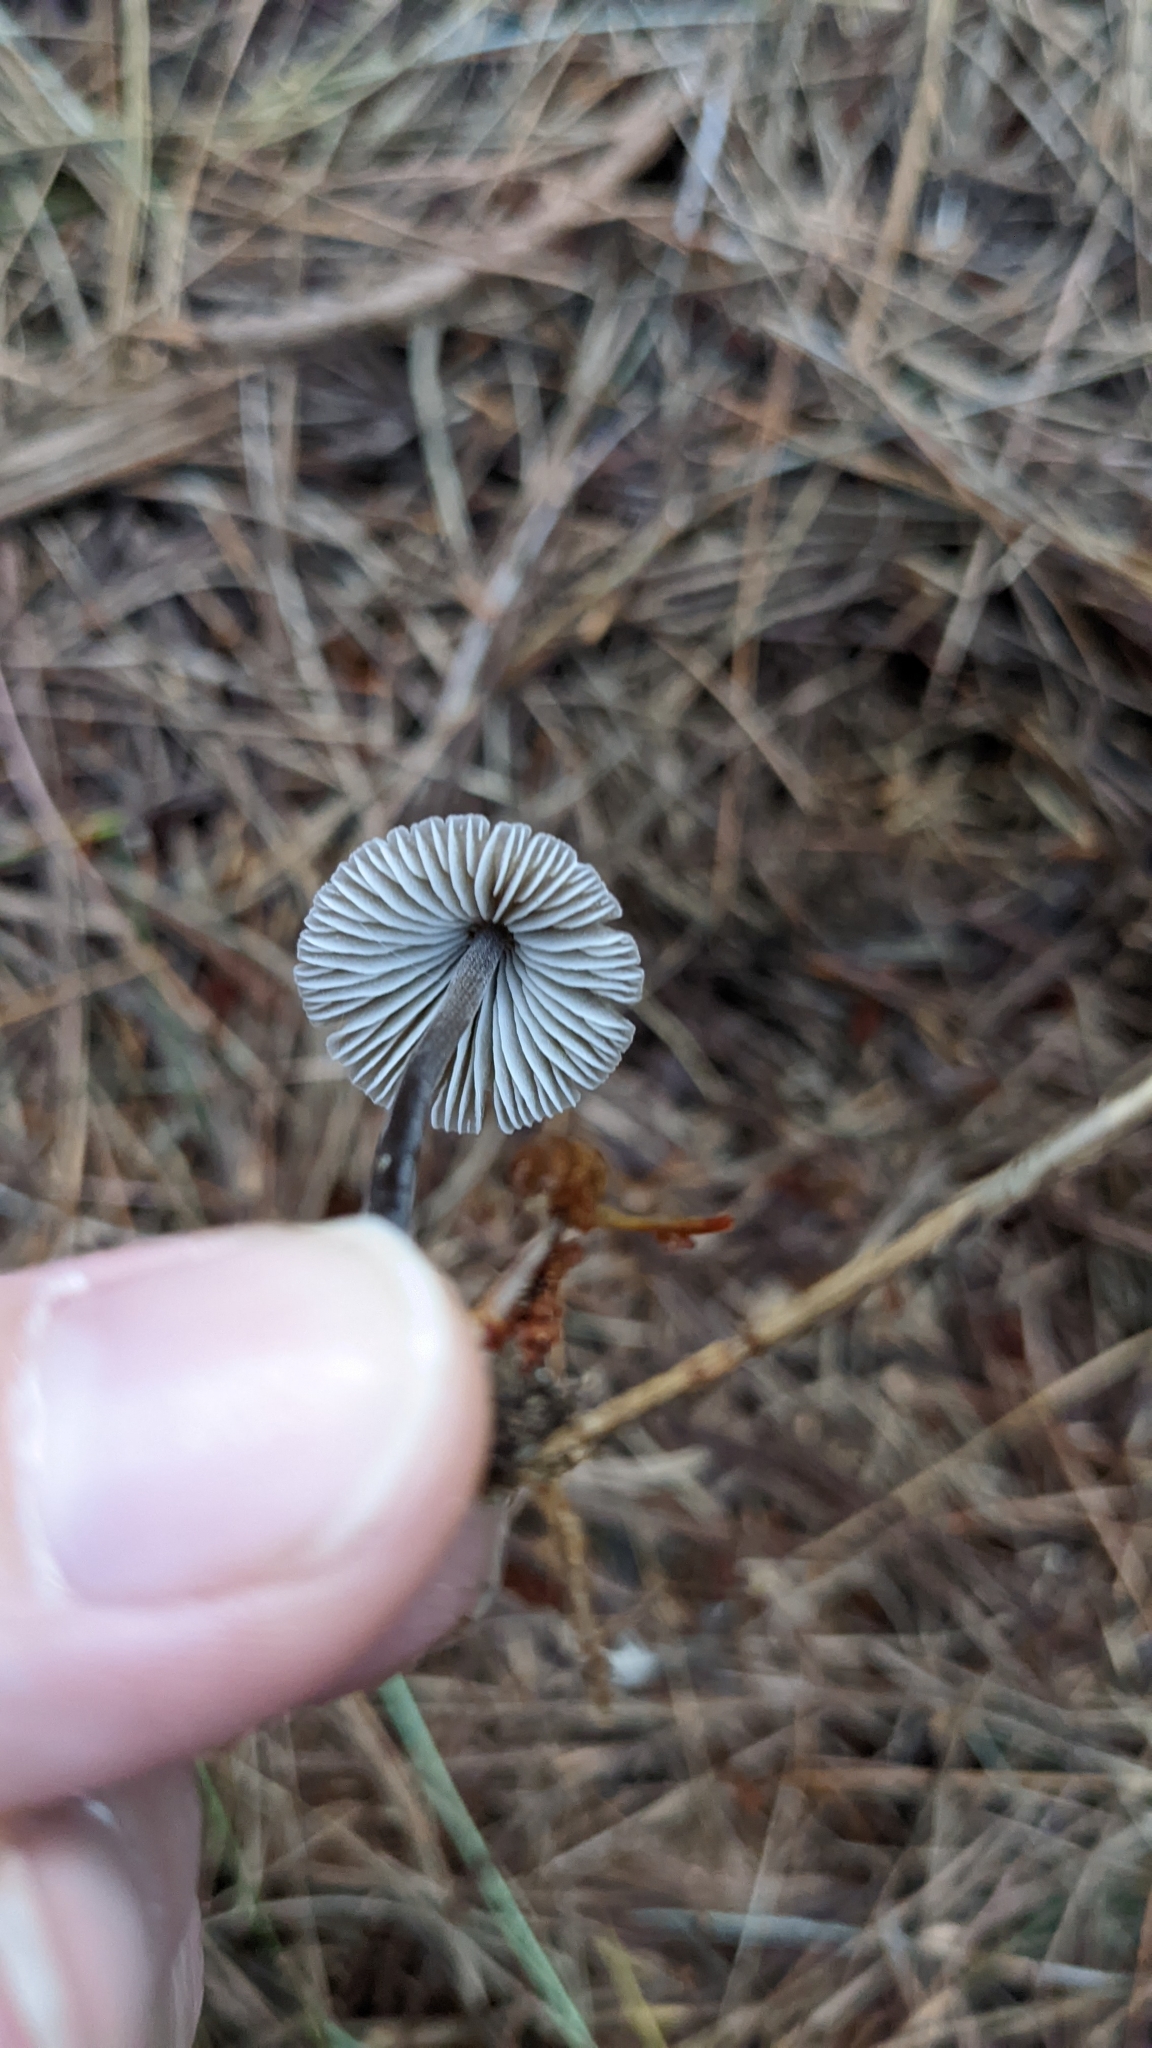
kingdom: Fungi
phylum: Basidiomycota
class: Agaricomycetes
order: Agaricales
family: Mycenaceae
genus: Mycena
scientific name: Mycena leptocephala
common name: Nitrous bonnet
